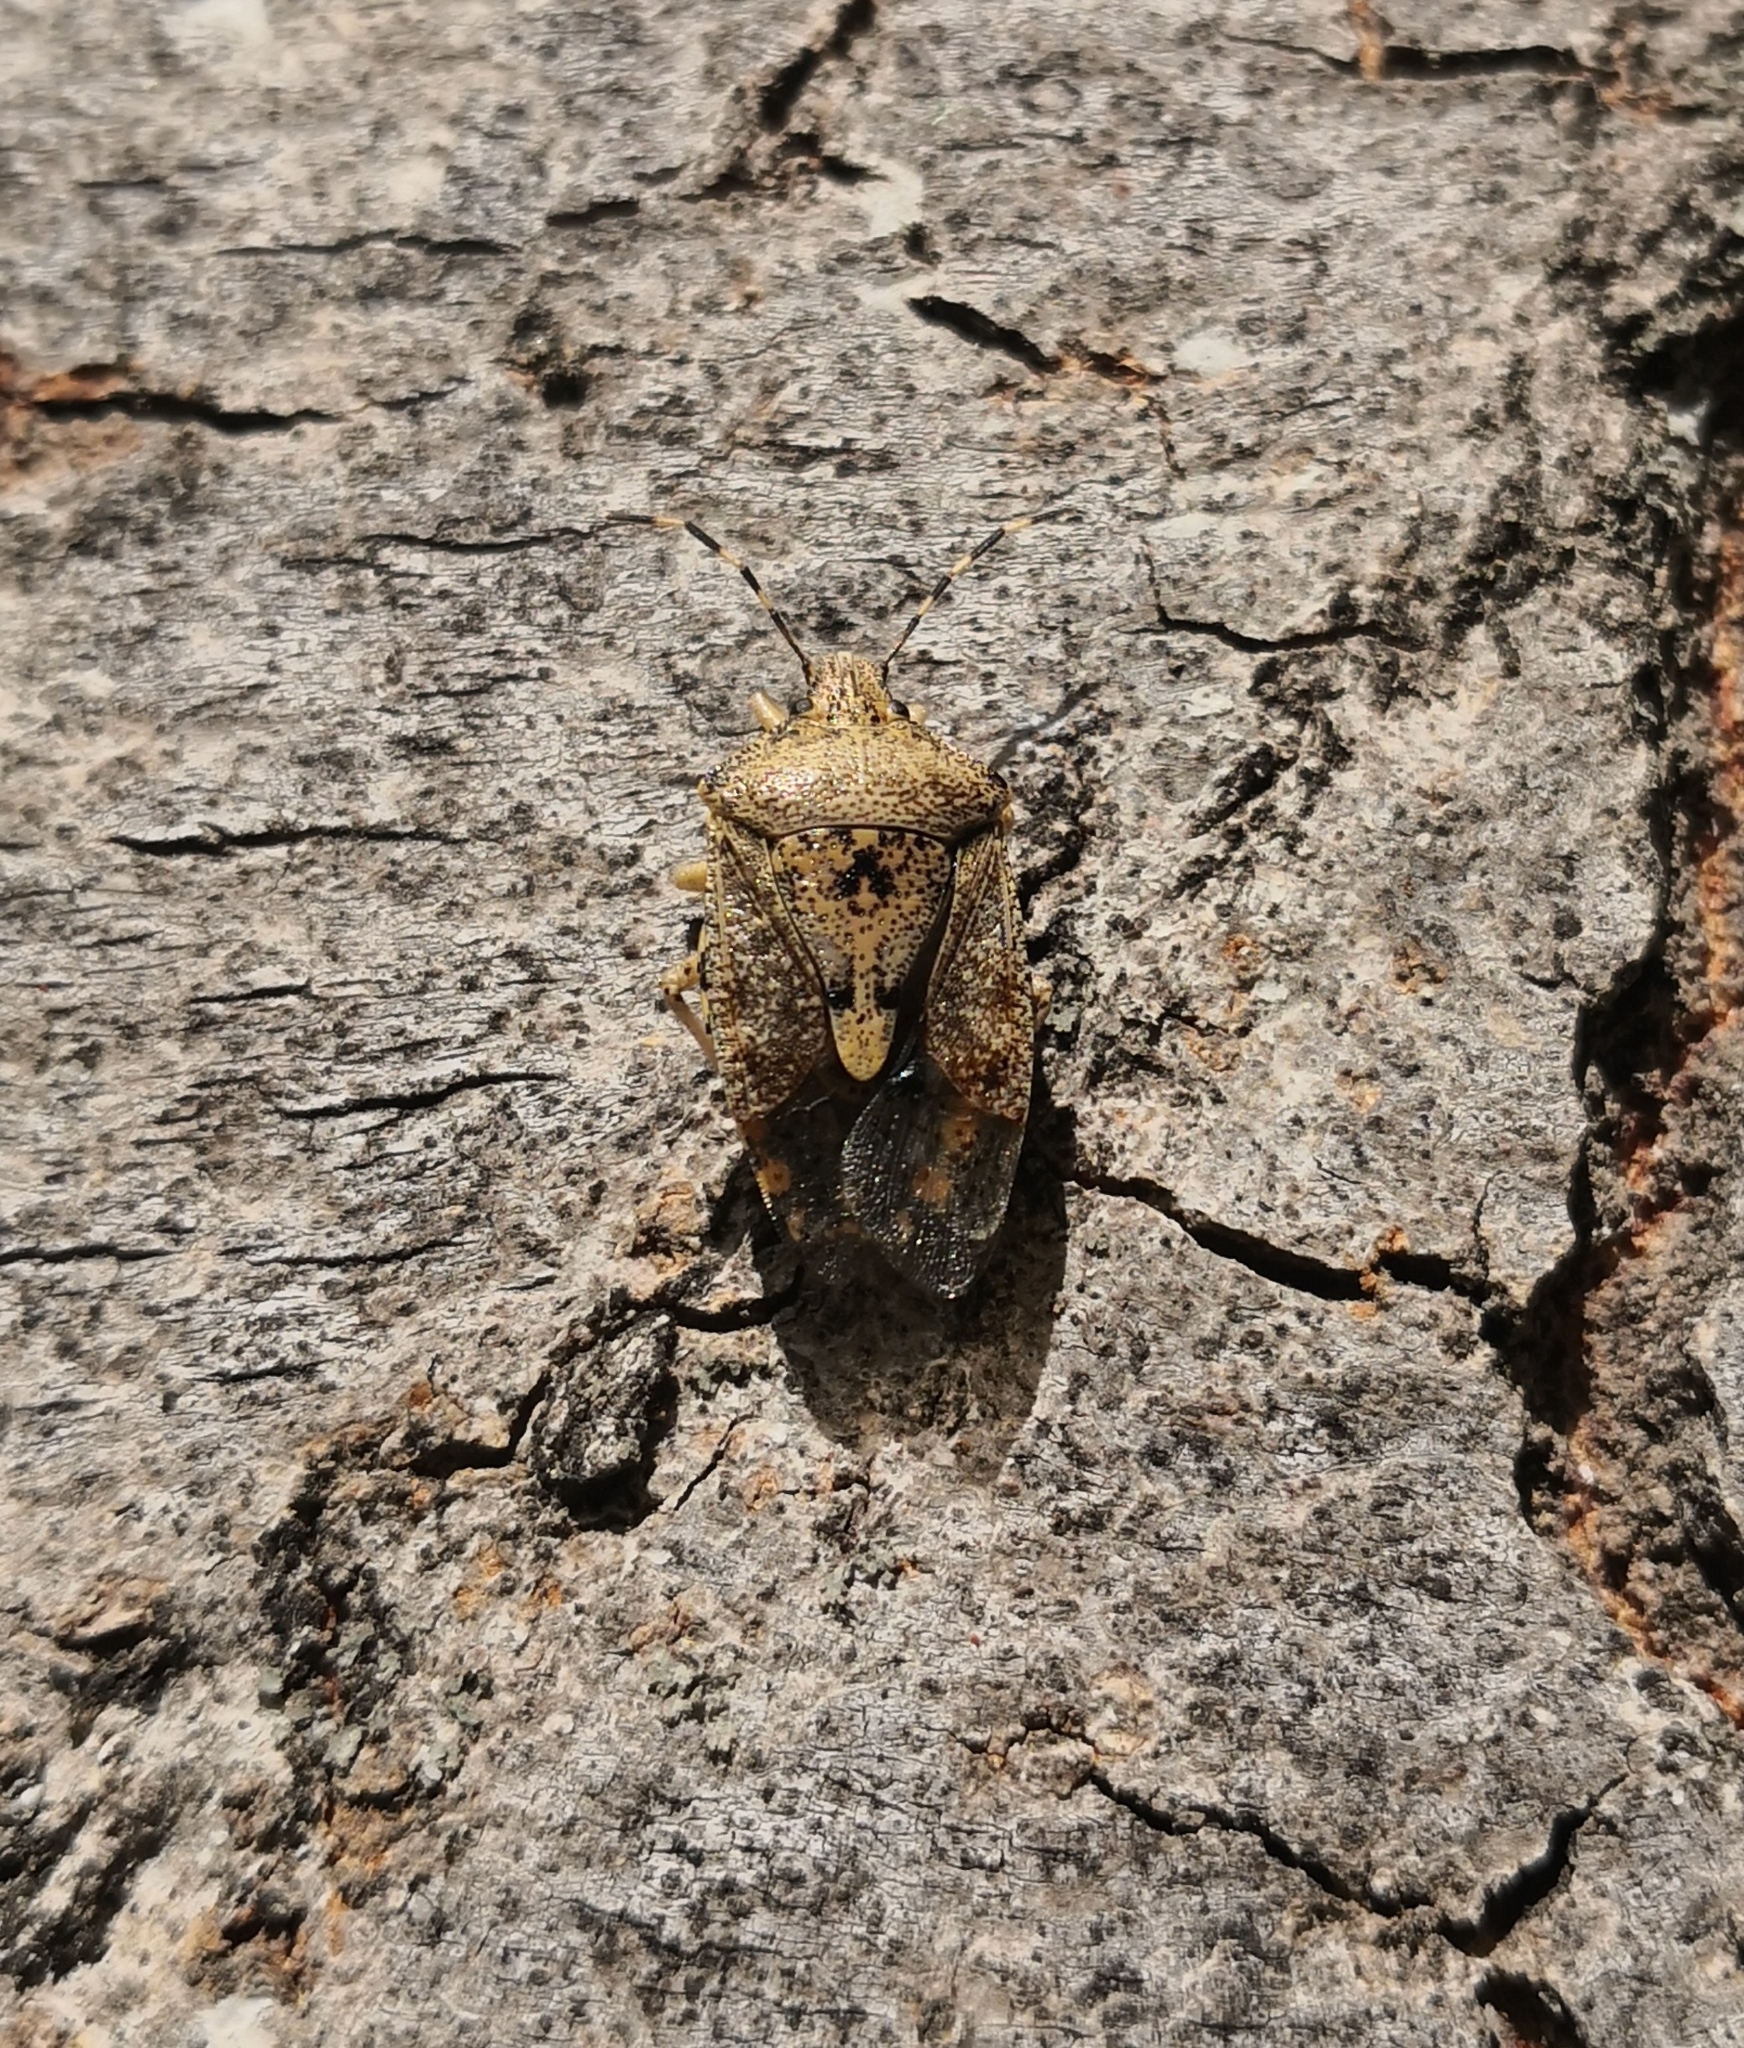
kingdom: Animalia
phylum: Arthropoda
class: Insecta
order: Hemiptera
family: Pentatomidae
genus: Rhaphigaster
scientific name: Rhaphigaster nebulosa
